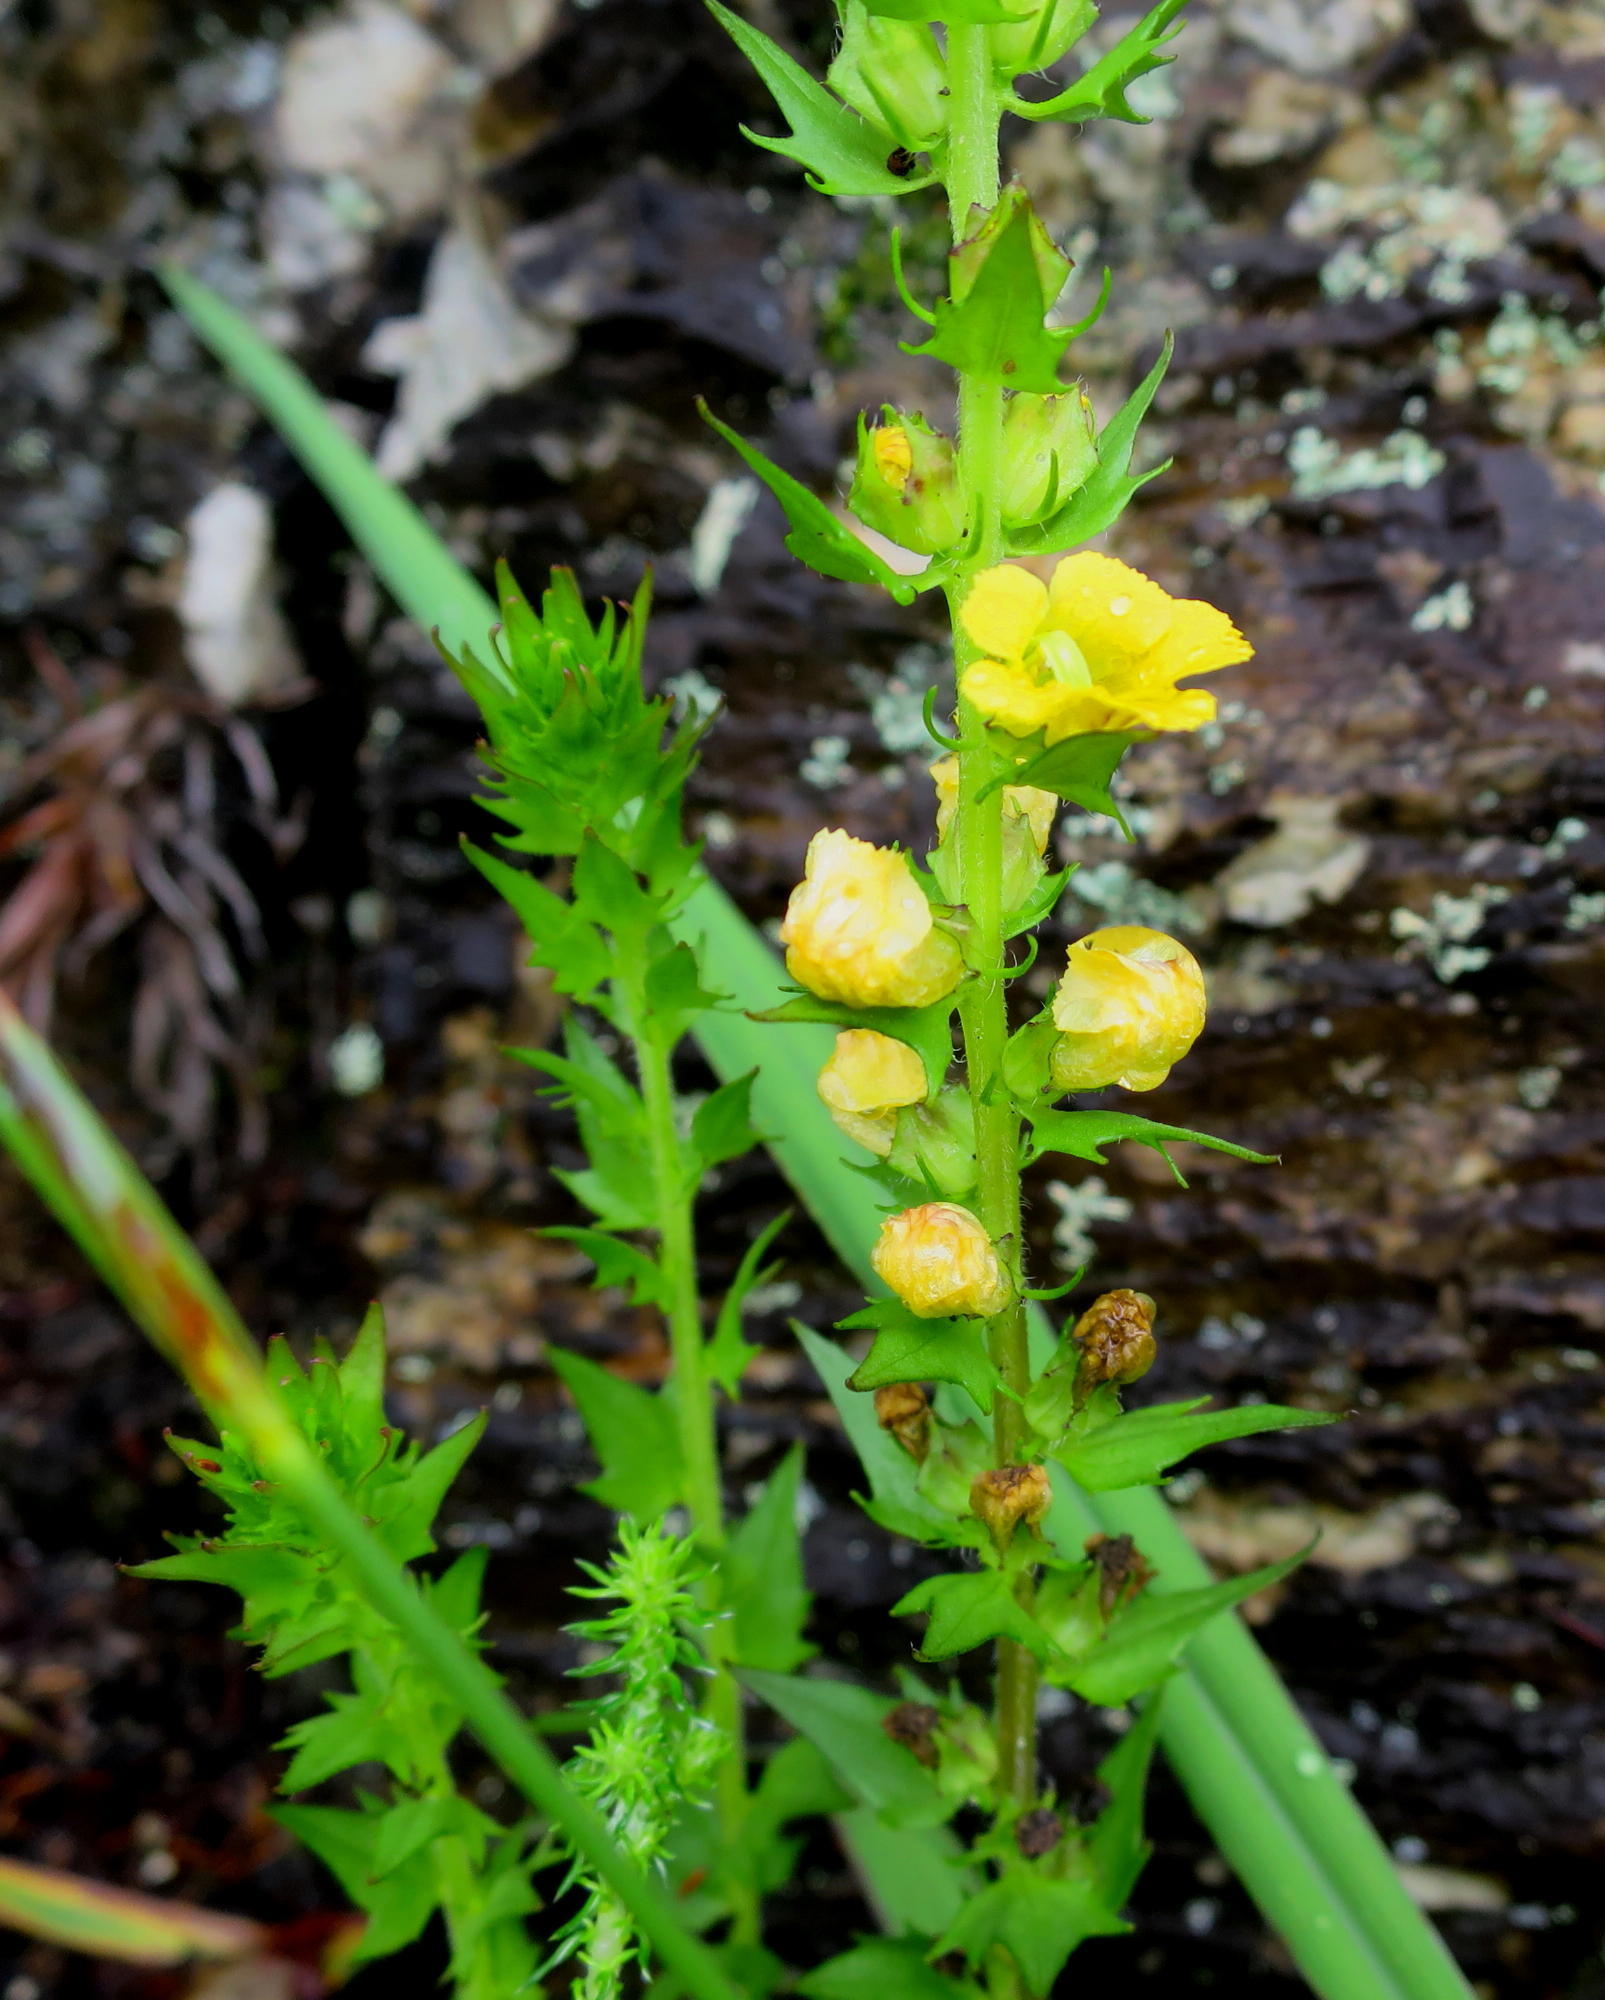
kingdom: Plantae
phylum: Tracheophyta
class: Magnoliopsida
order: Lamiales
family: Orobanchaceae
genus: Alectra
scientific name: Alectra sessiliflora
